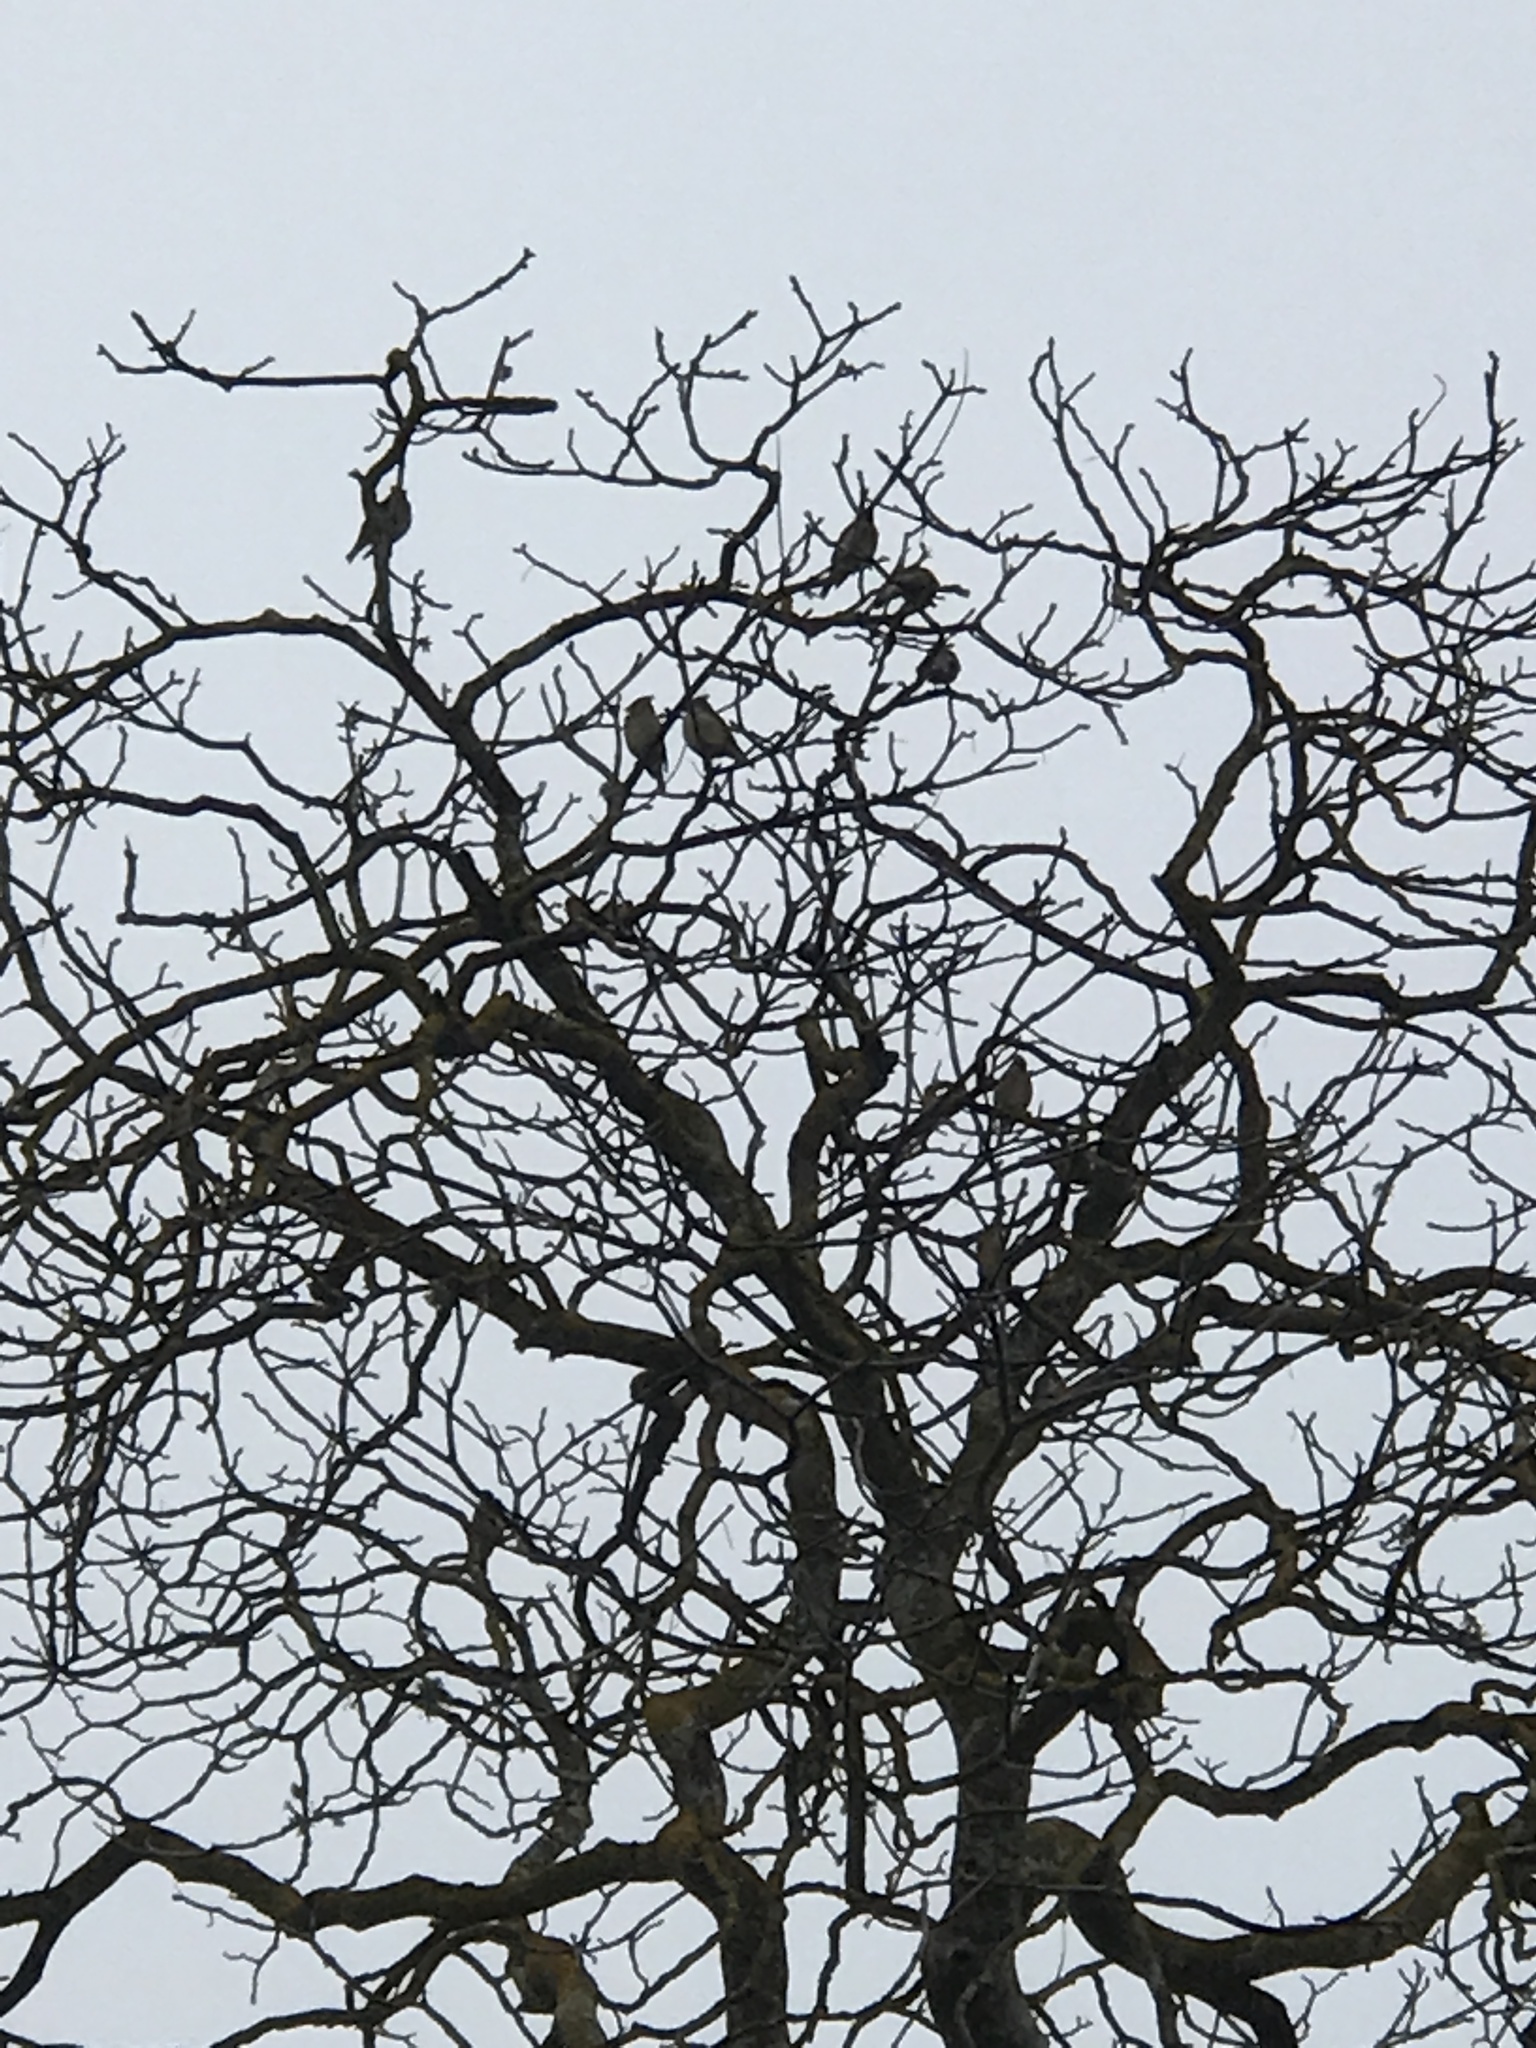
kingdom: Animalia
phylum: Chordata
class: Aves
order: Passeriformes
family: Bombycillidae
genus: Bombycilla
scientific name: Bombycilla cedrorum
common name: Cedar waxwing
